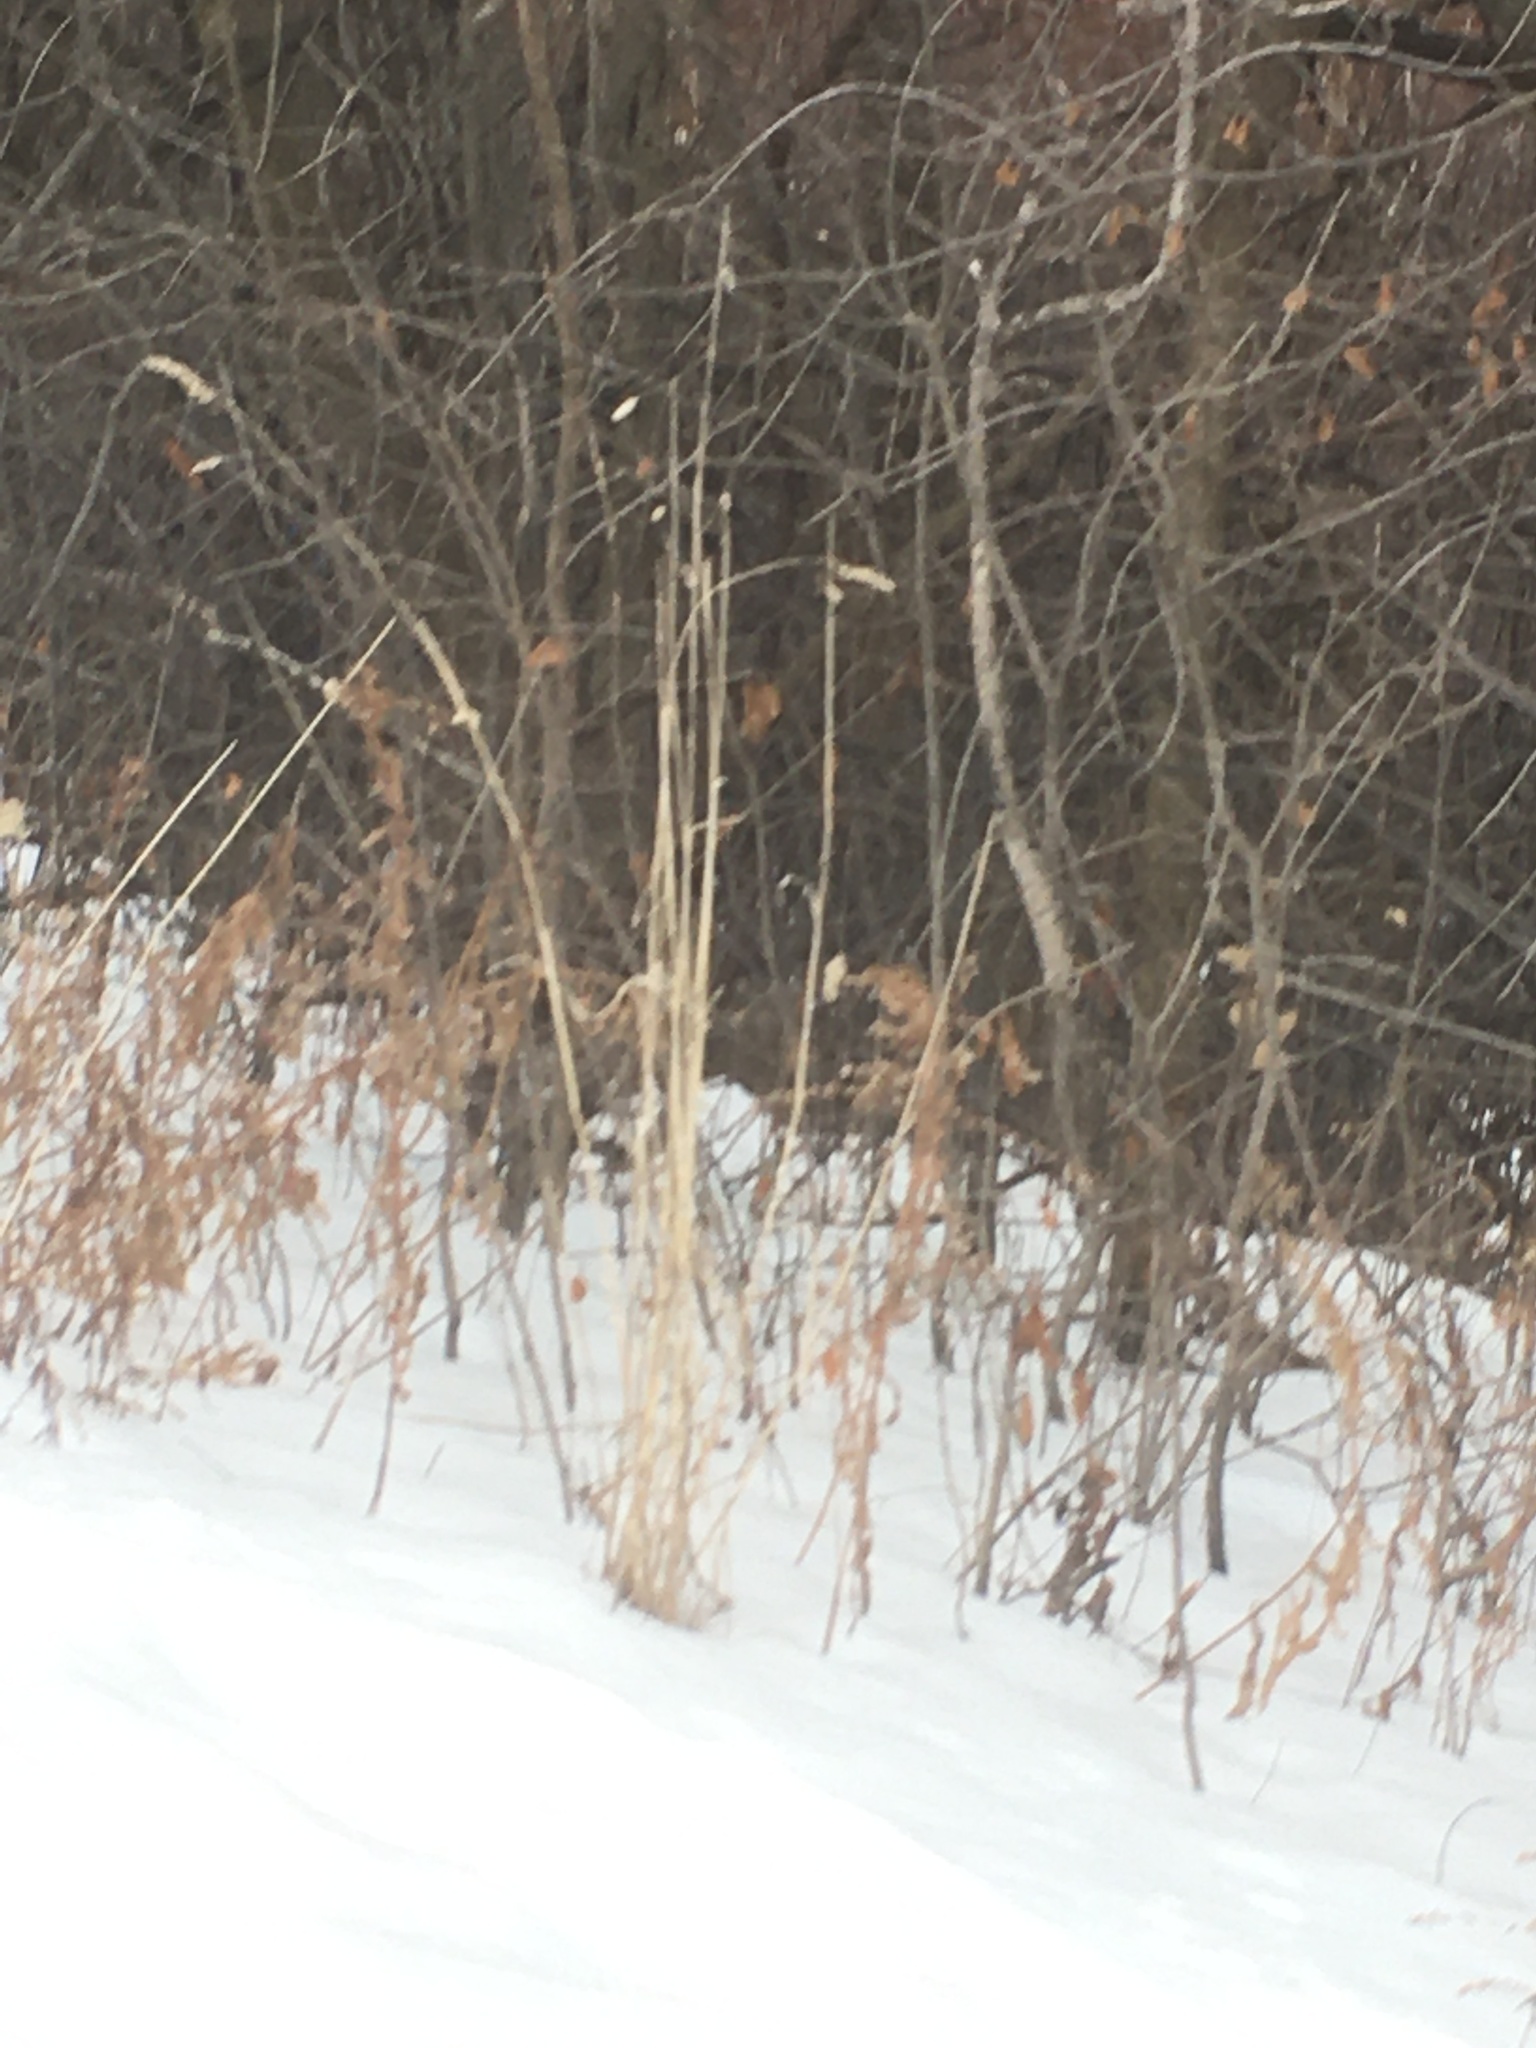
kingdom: Plantae
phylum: Tracheophyta
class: Liliopsida
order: Poales
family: Poaceae
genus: Dactylis
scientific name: Dactylis glomerata
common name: Orchardgrass
